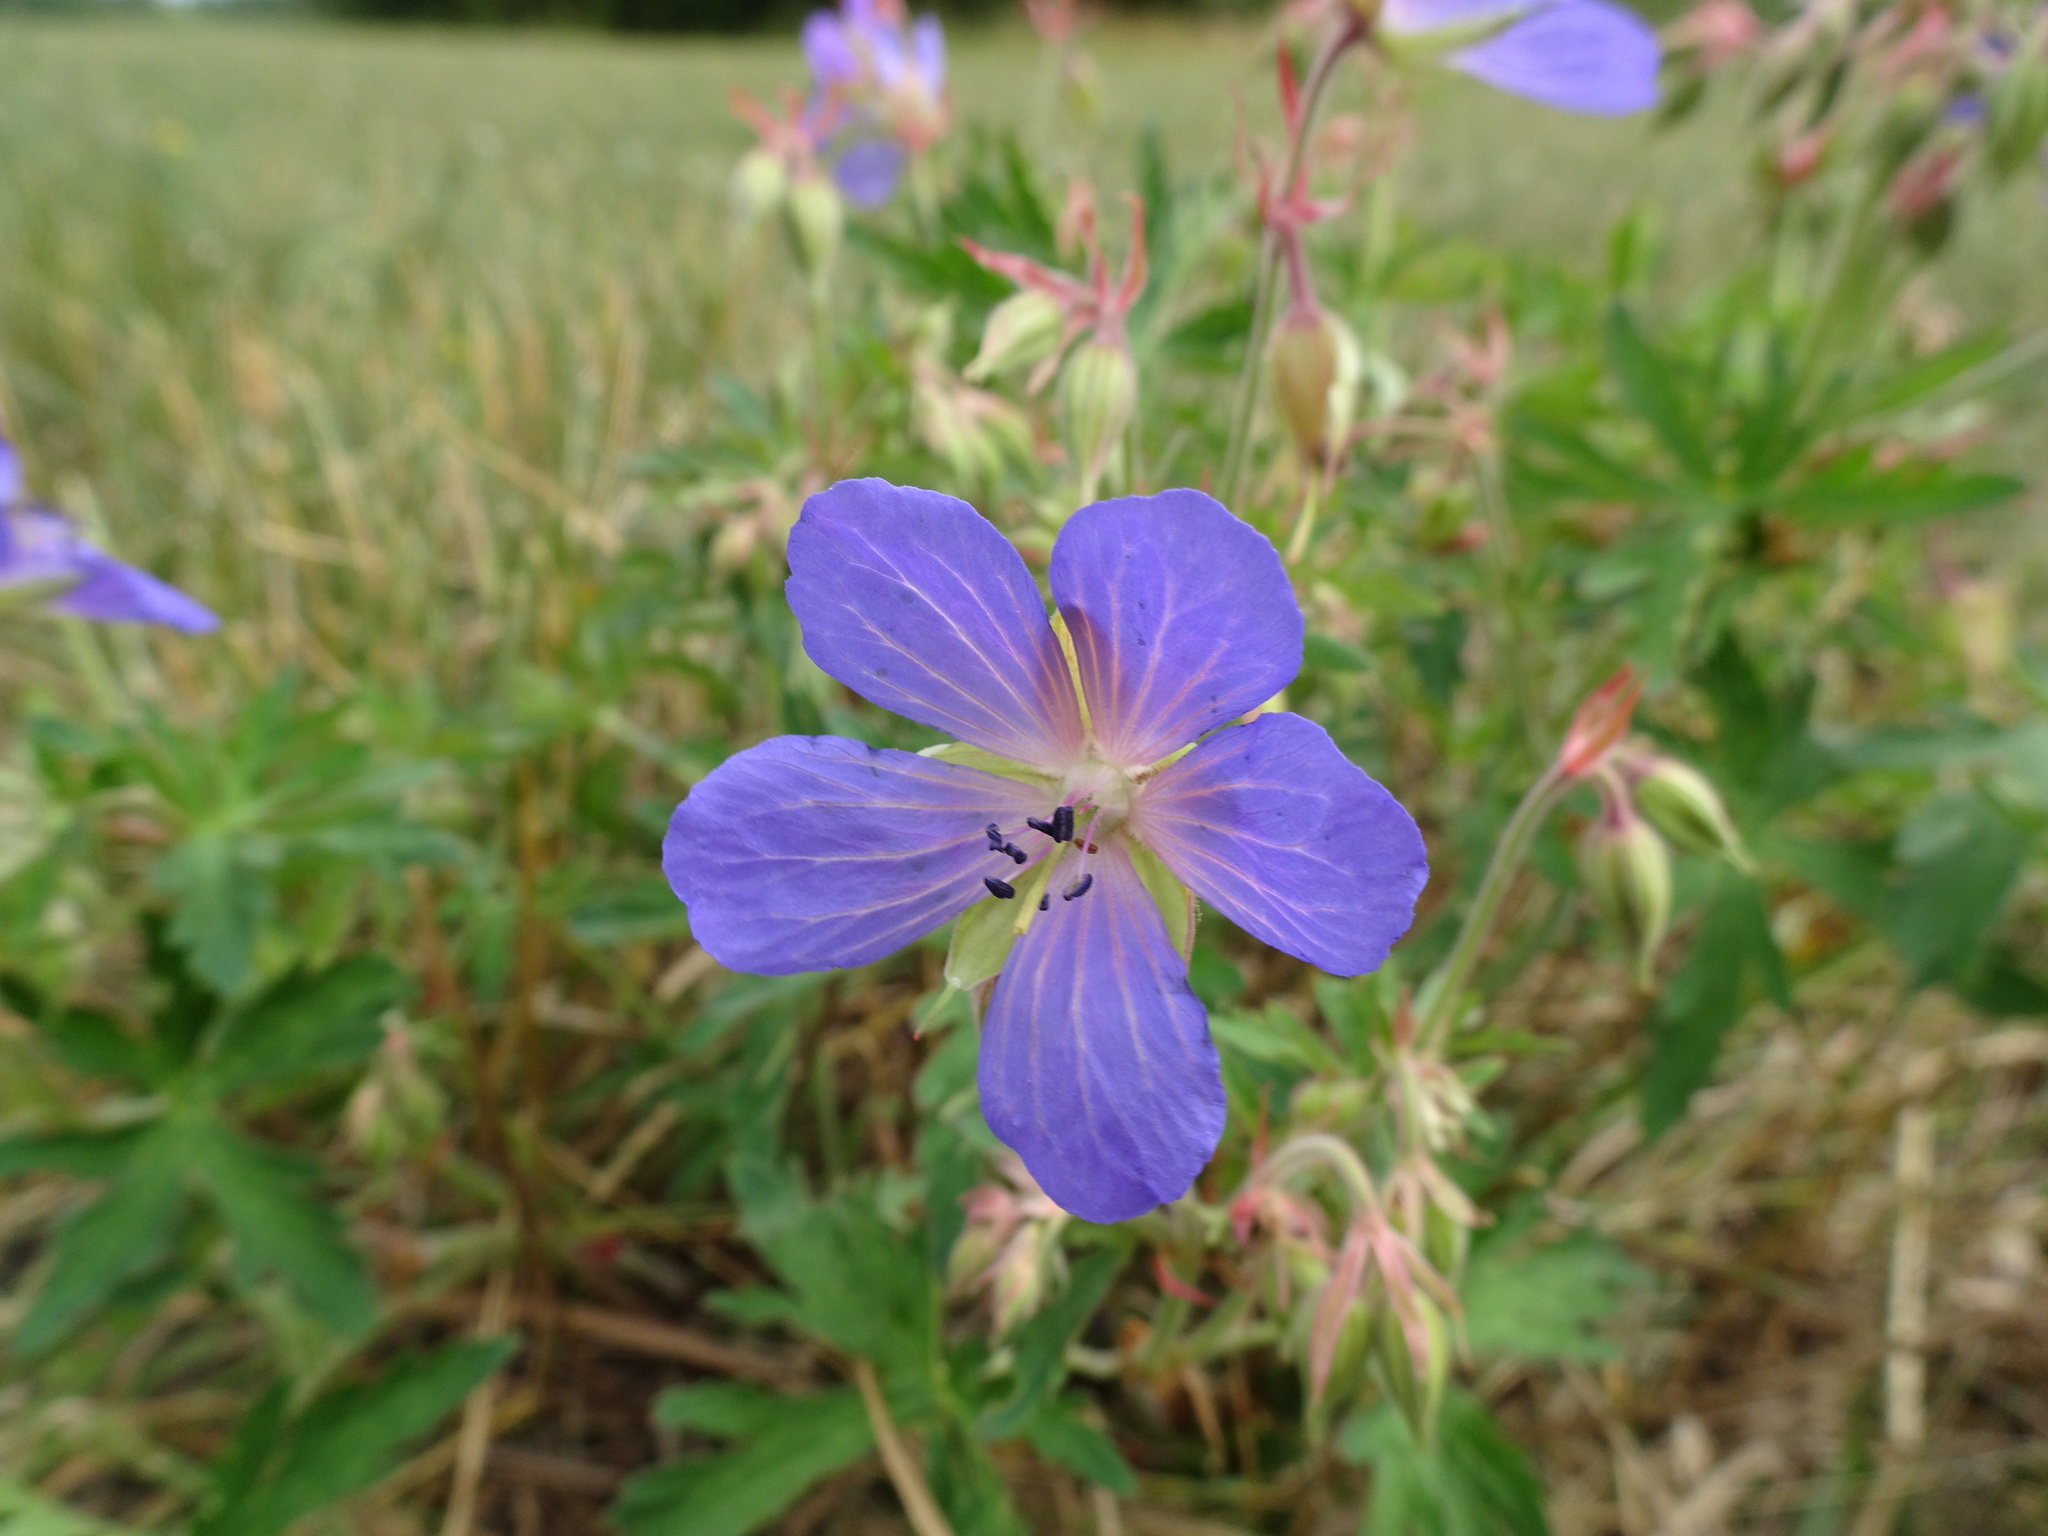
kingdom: Plantae
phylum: Tracheophyta
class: Magnoliopsida
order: Geraniales
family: Geraniaceae
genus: Geranium
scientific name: Geranium pratense
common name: Meadow crane's-bill
